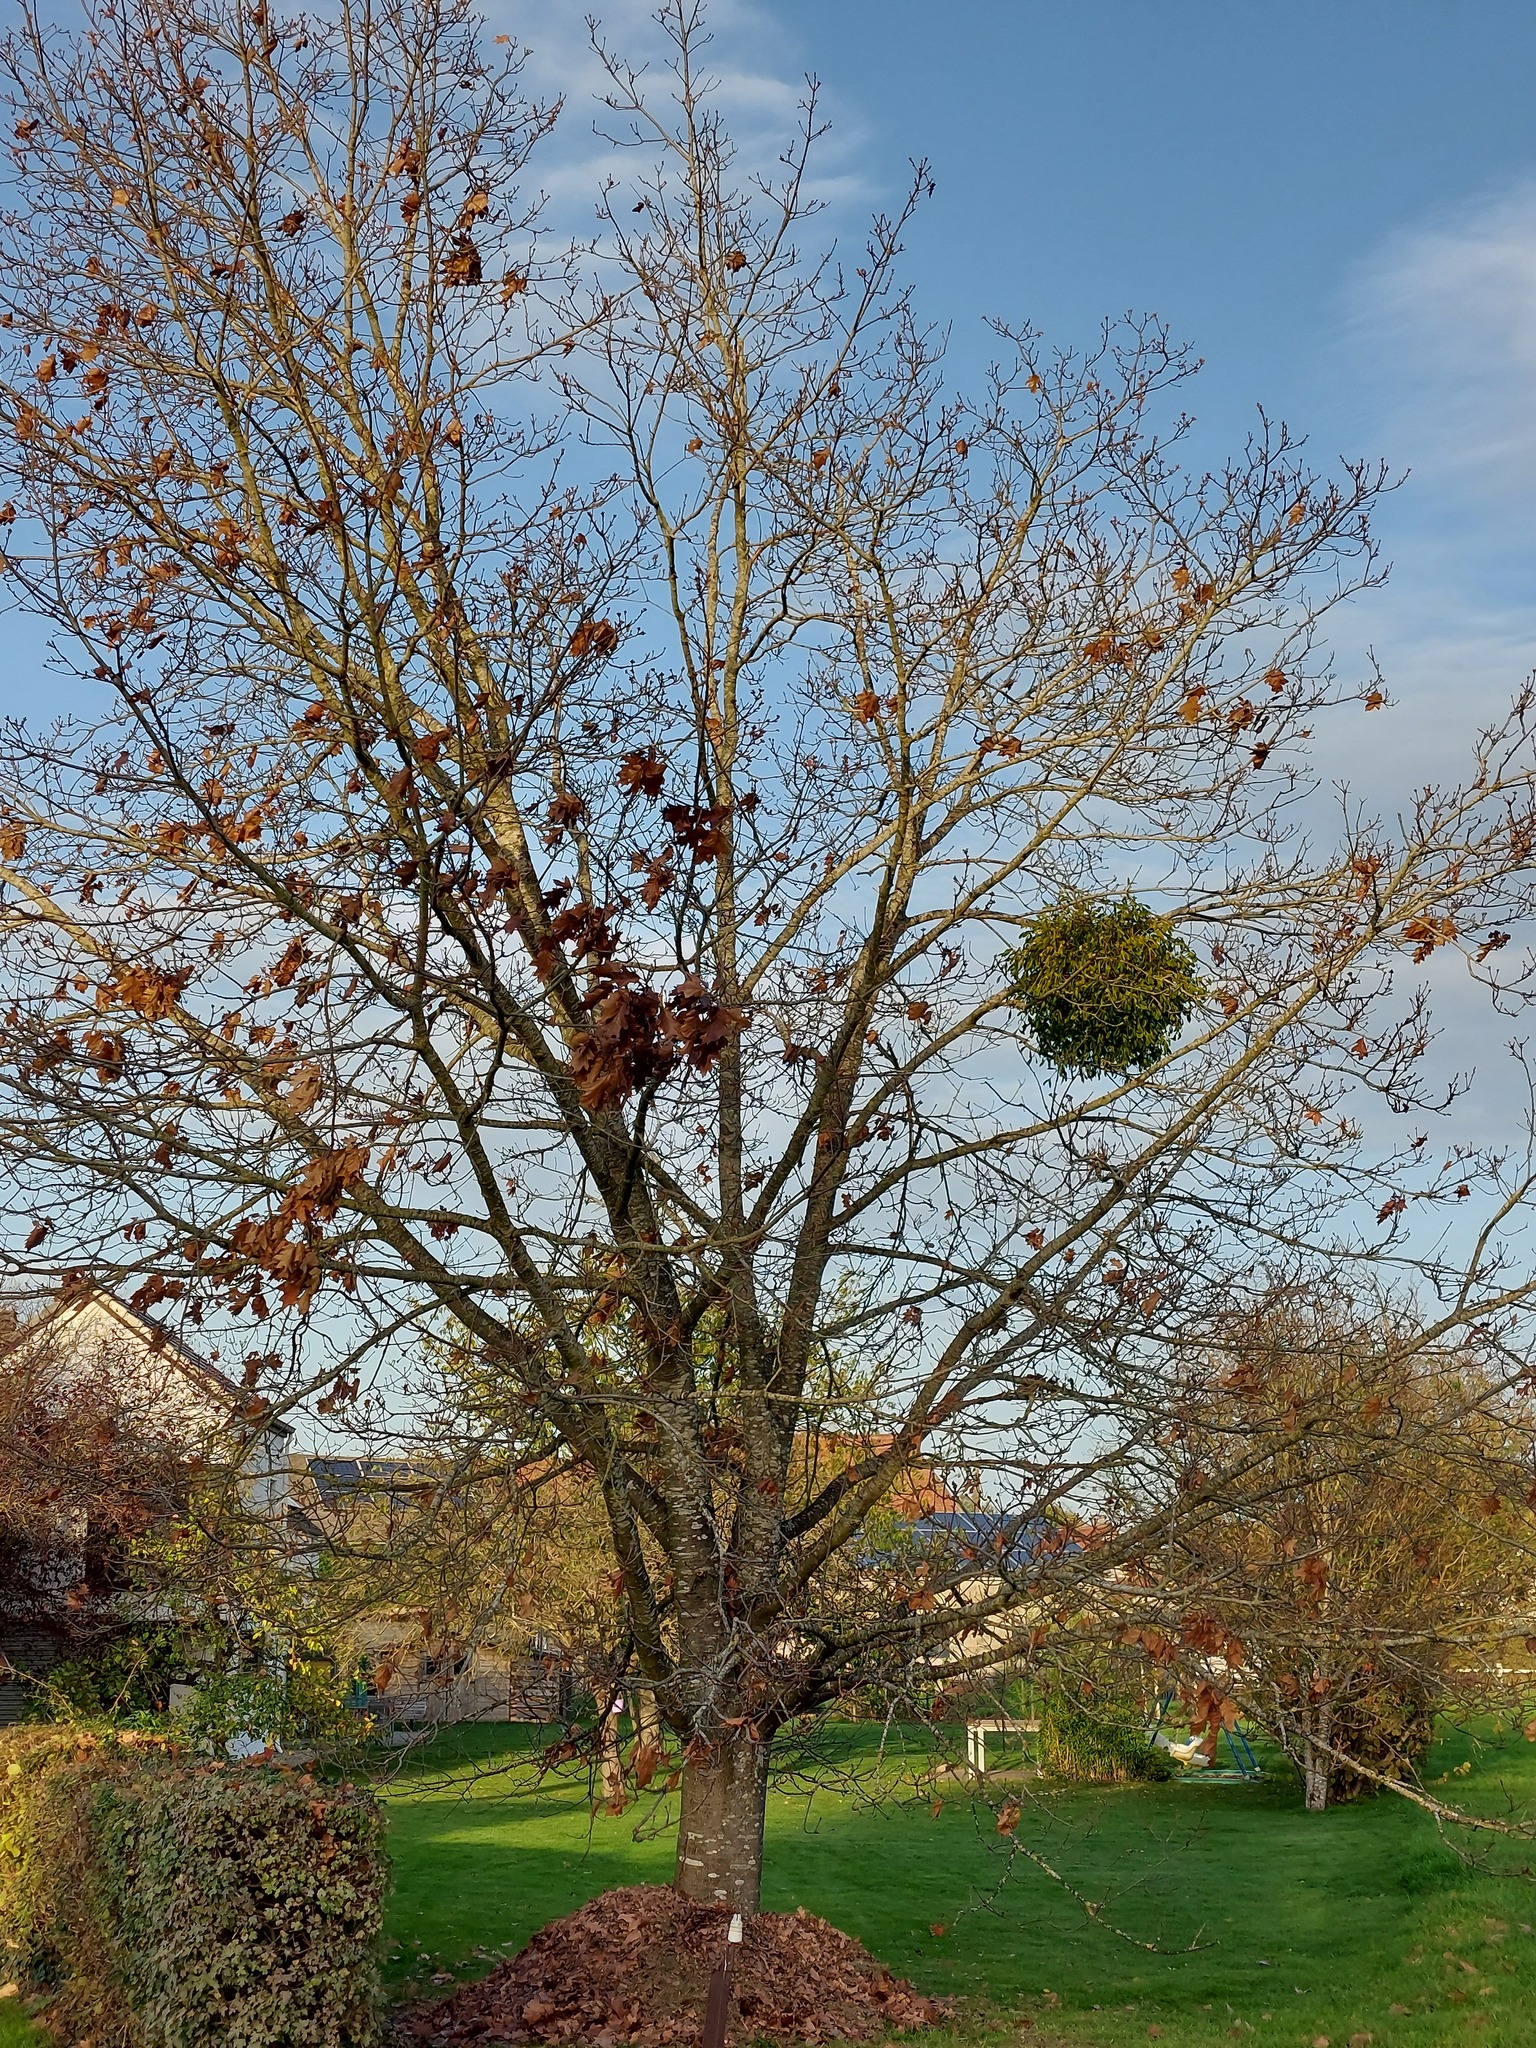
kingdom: Plantae
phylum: Tracheophyta
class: Magnoliopsida
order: Santalales
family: Viscaceae
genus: Viscum
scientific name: Viscum album
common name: Mistletoe
